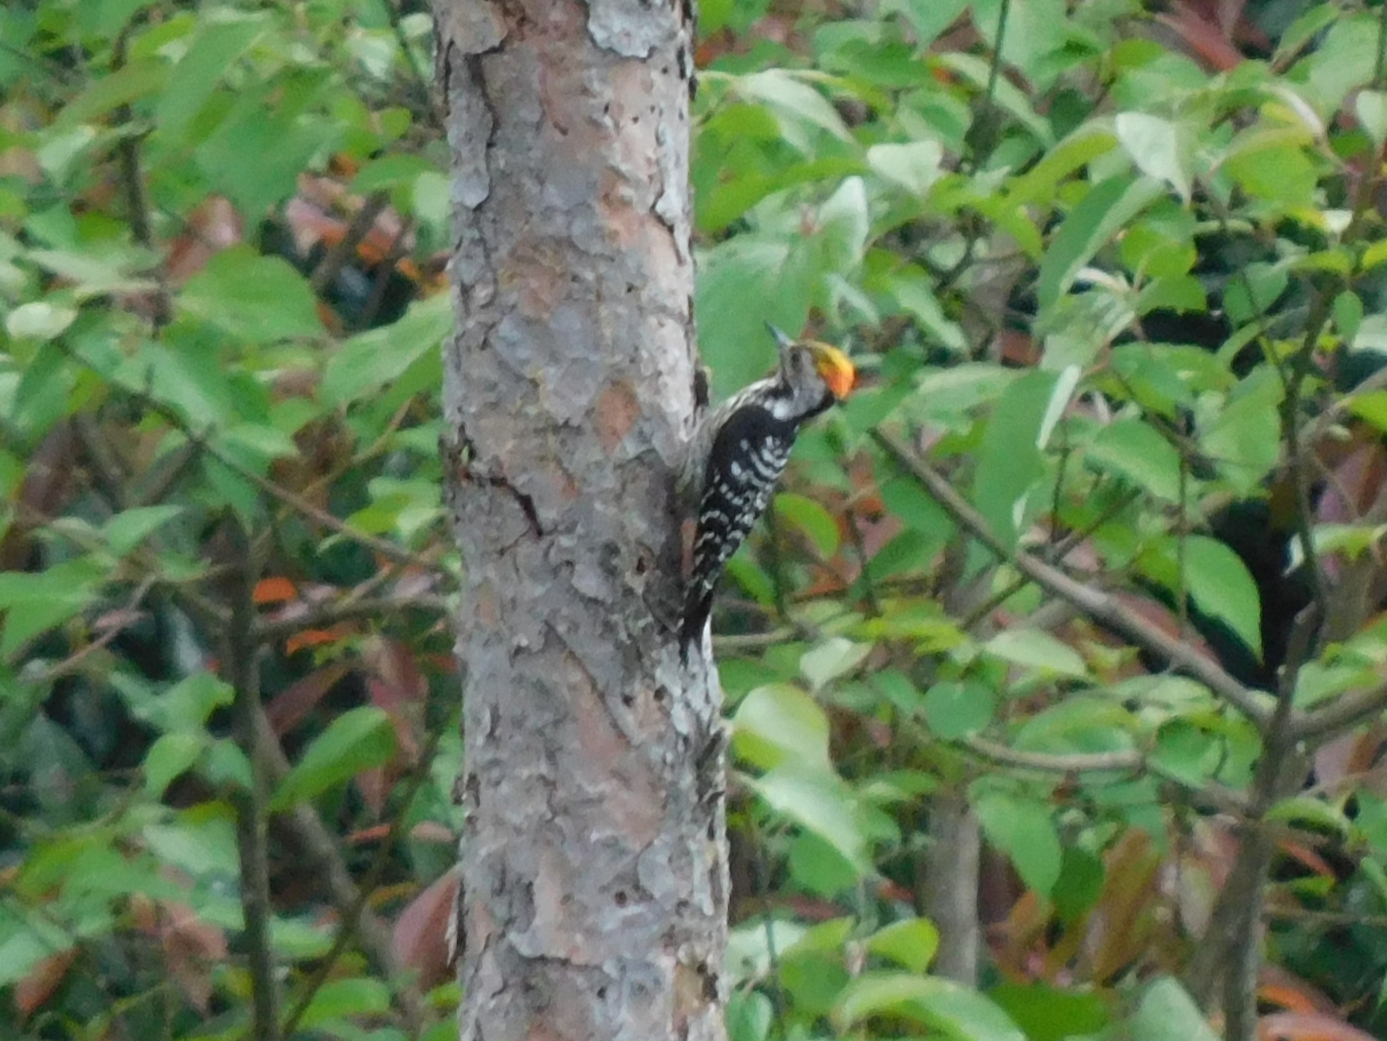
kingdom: Animalia
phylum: Chordata
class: Aves
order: Piciformes
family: Picidae
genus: Dendrocoptes
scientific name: Dendrocoptes auriceps
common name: Brown-fronted woodpecker
